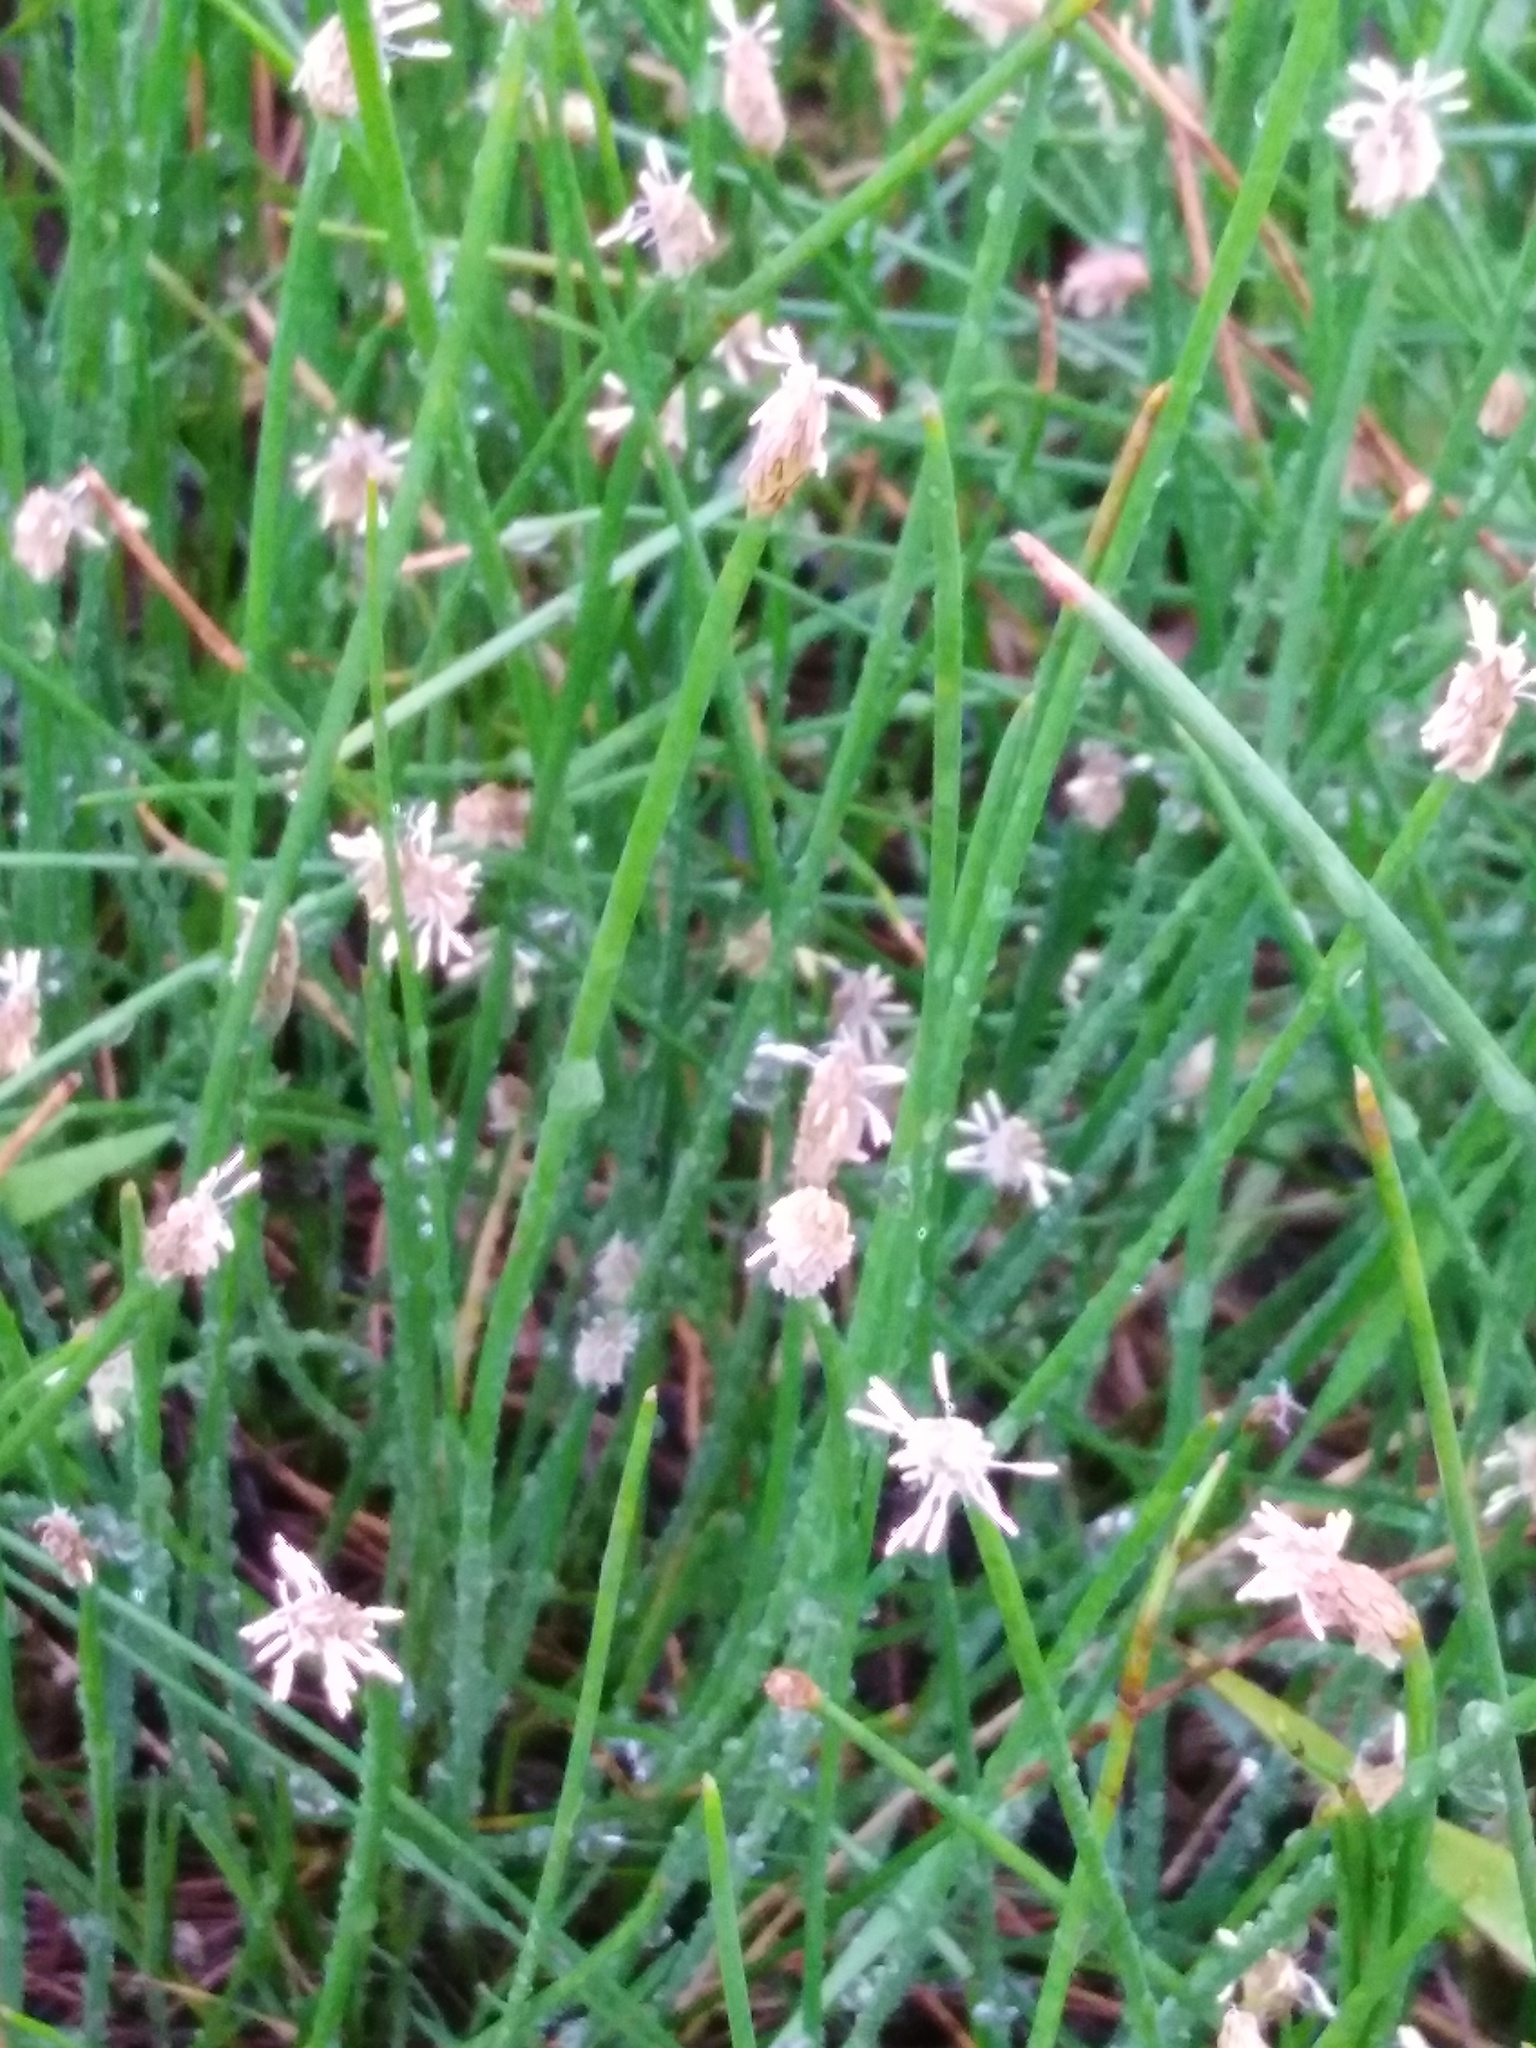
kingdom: Plantae
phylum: Tracheophyta
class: Liliopsida
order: Poales
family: Cyperaceae
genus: Eleocharis
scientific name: Eleocharis palustris
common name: Common spike-rush
